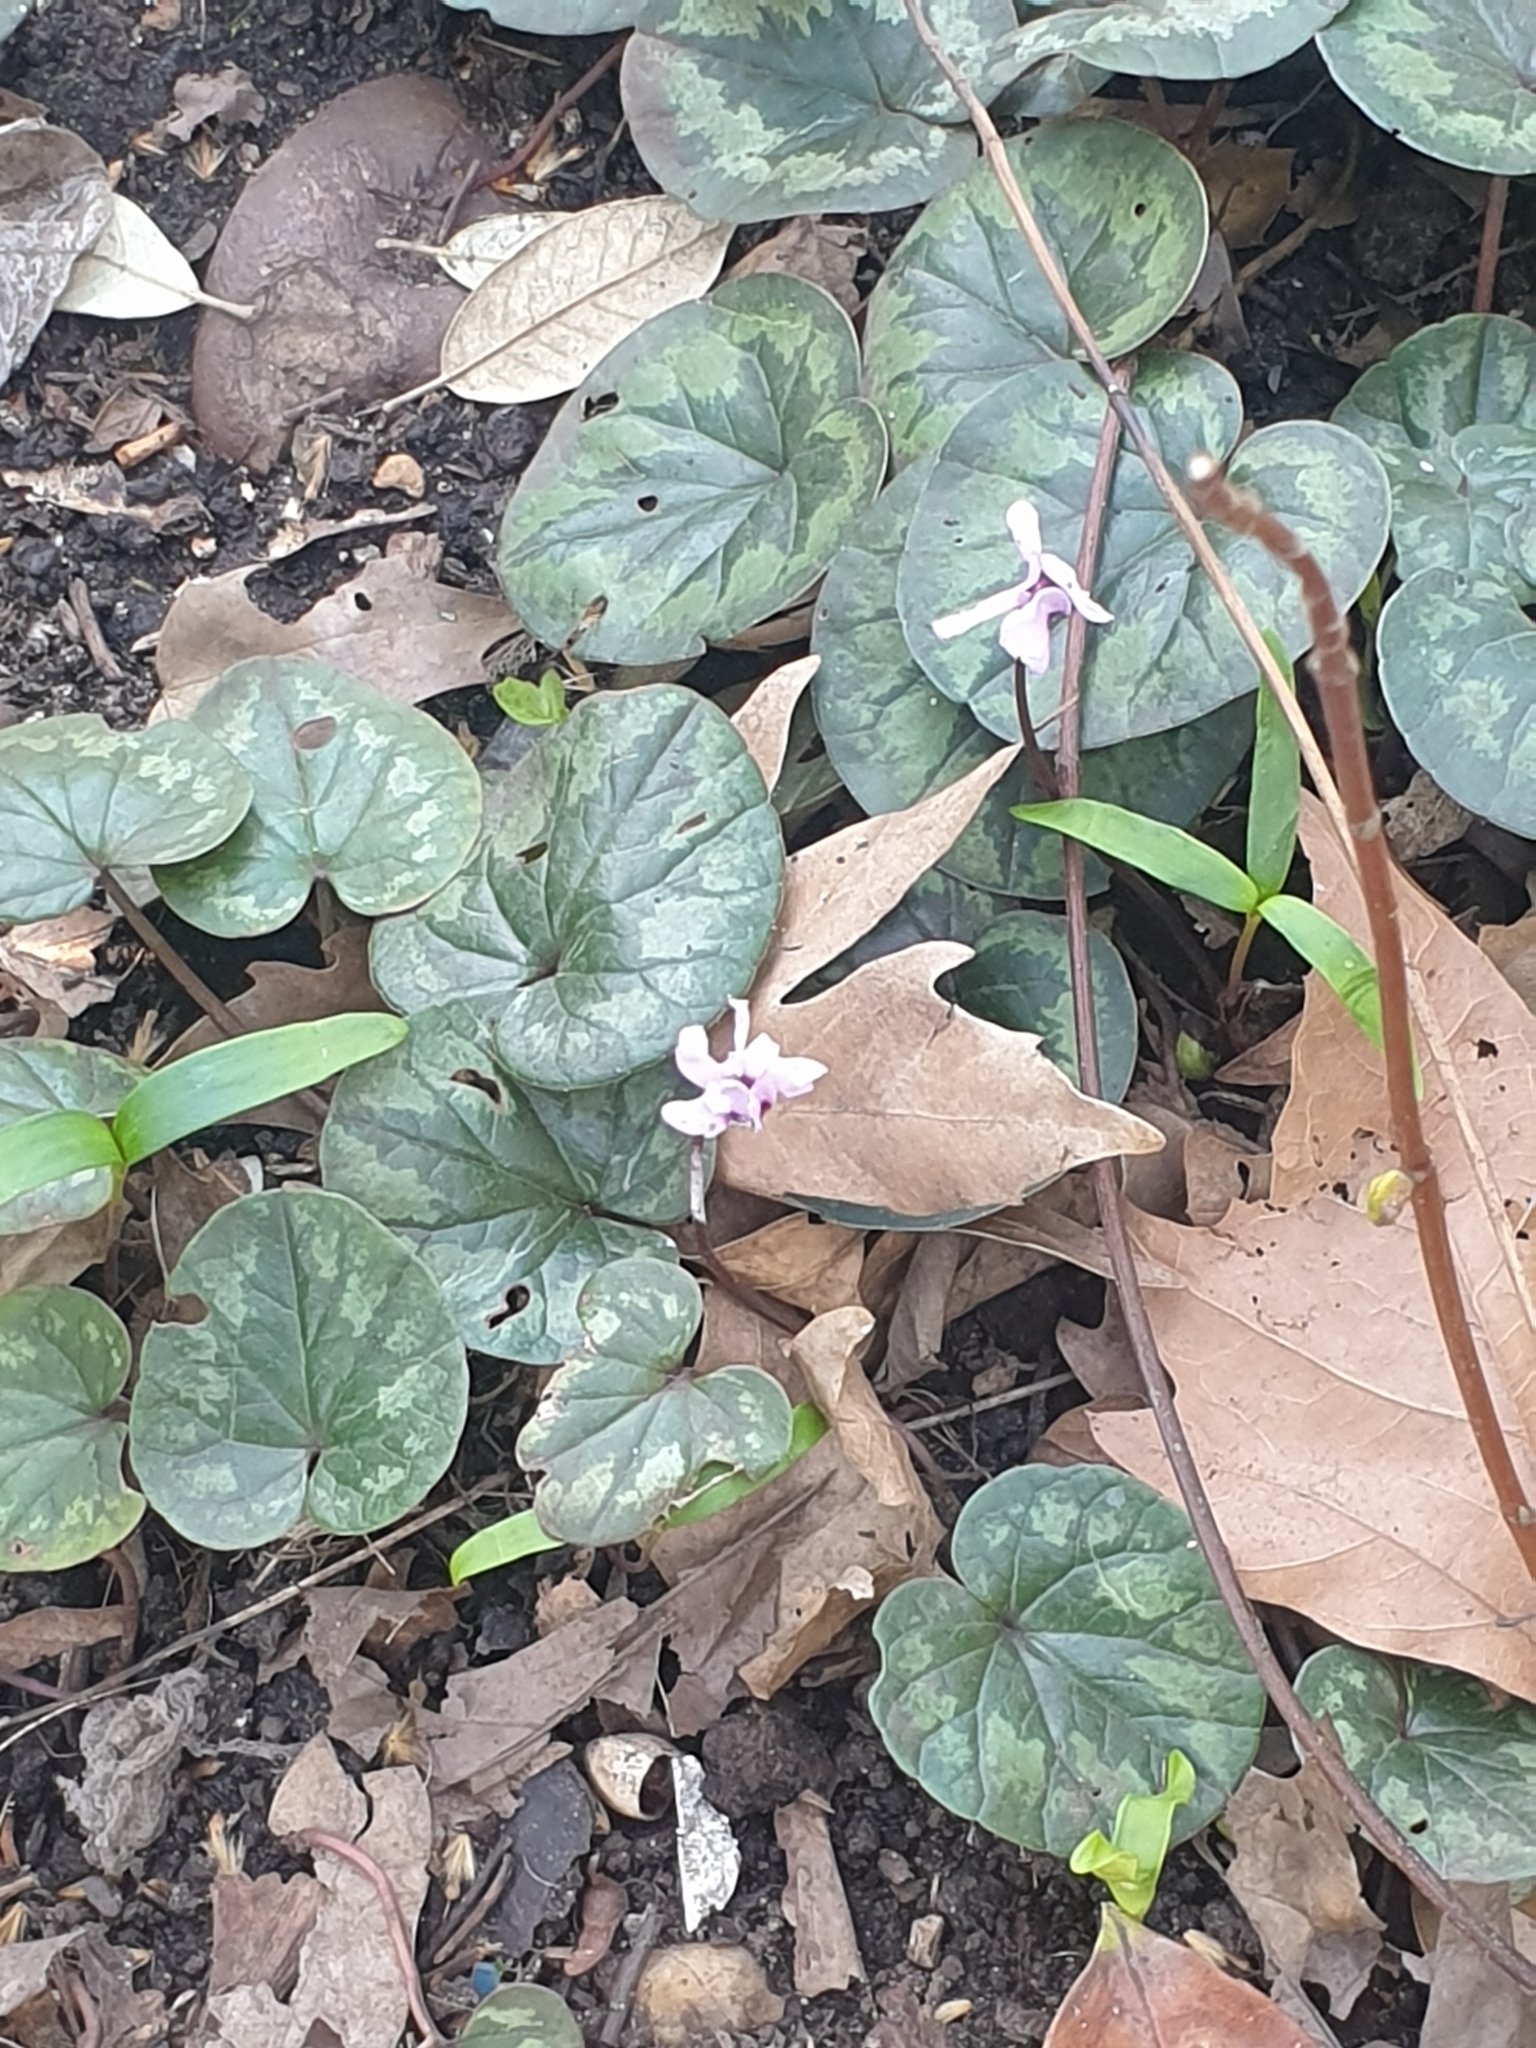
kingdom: Plantae
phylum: Tracheophyta
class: Magnoliopsida
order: Ericales
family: Primulaceae
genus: Cyclamen
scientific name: Cyclamen coum
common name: Eastern sowbread
